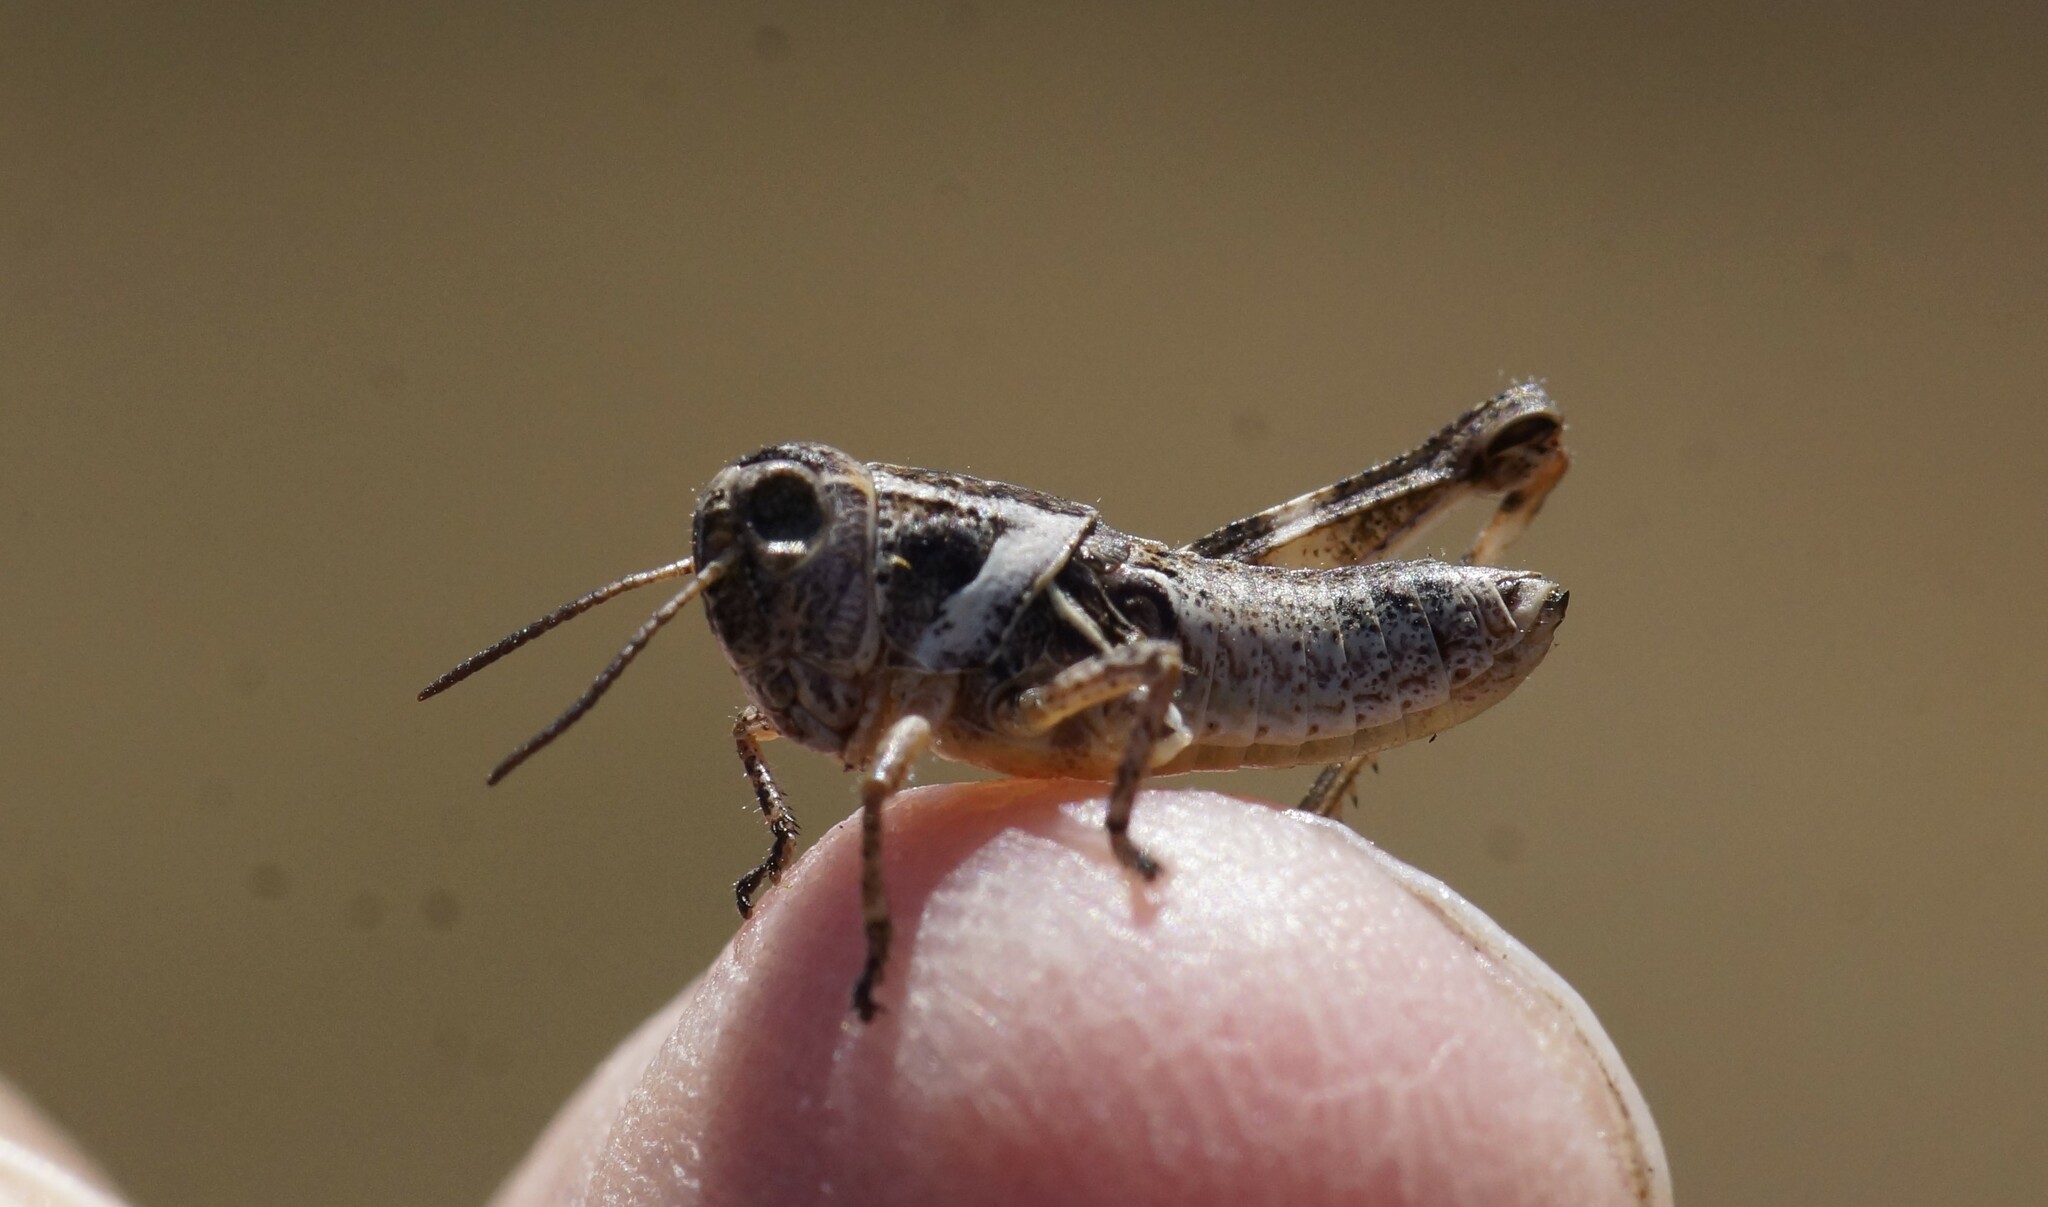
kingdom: Animalia
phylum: Arthropoda
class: Insecta
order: Orthoptera
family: Acrididae
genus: Brachyexarna
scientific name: Brachyexarna lobipennis
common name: Stripe-winged meadow grasshopper
